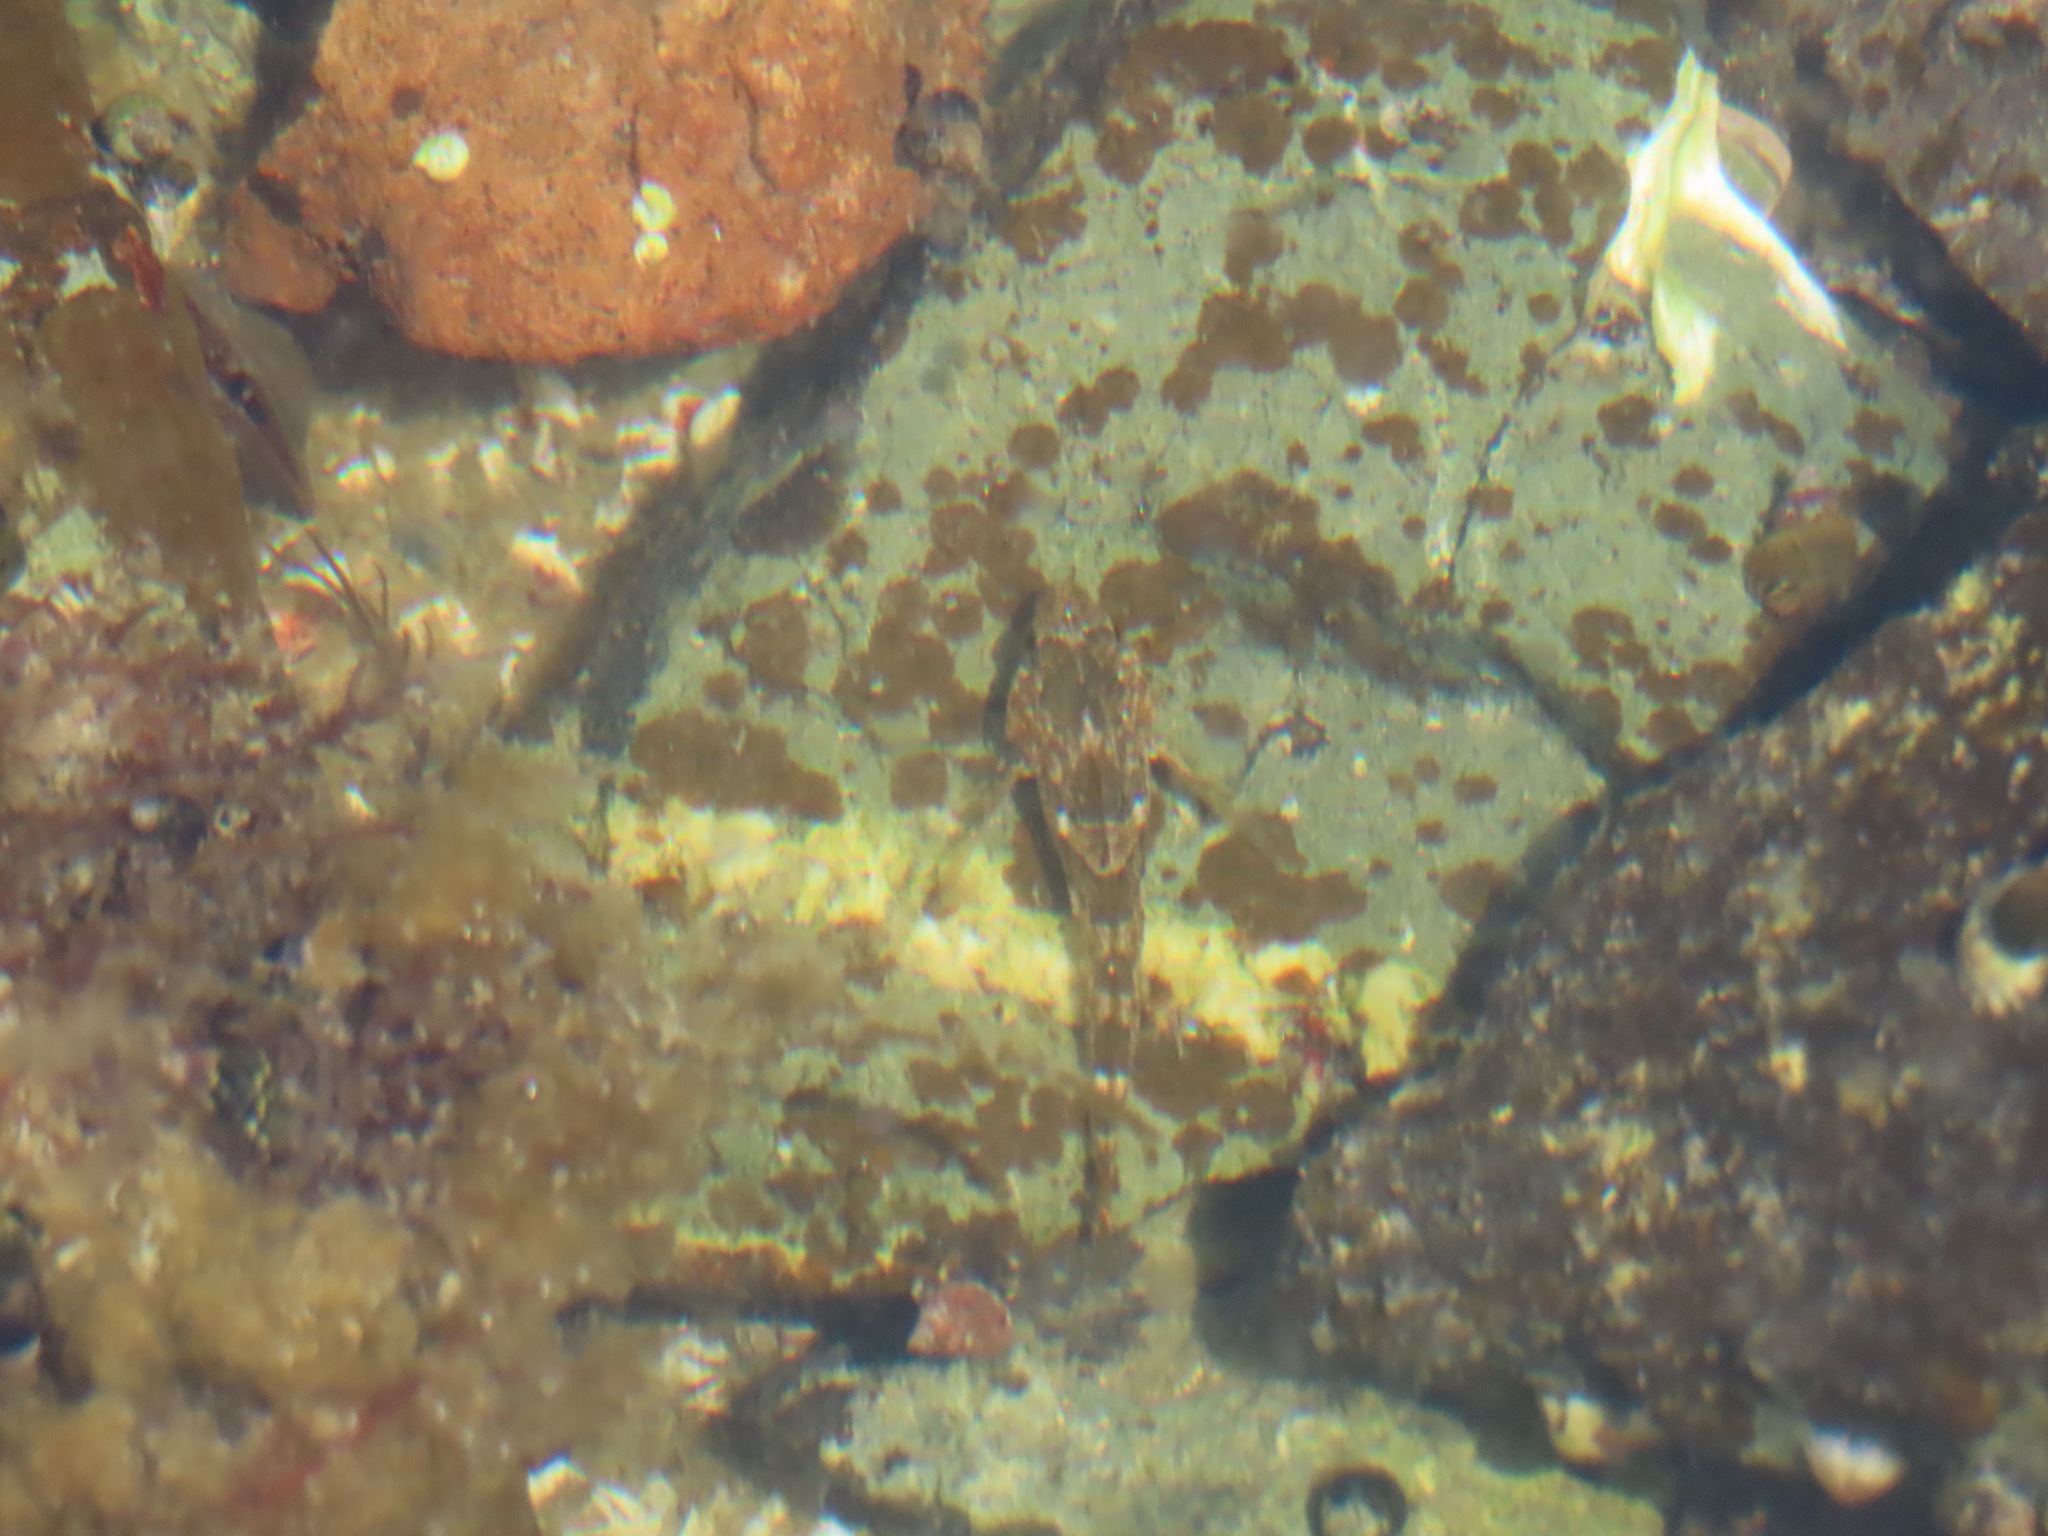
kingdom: Animalia
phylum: Chordata
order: Scorpaeniformes
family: Cottidae
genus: Oligocottus
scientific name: Oligocottus maculosus
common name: Tidepool sculpin
